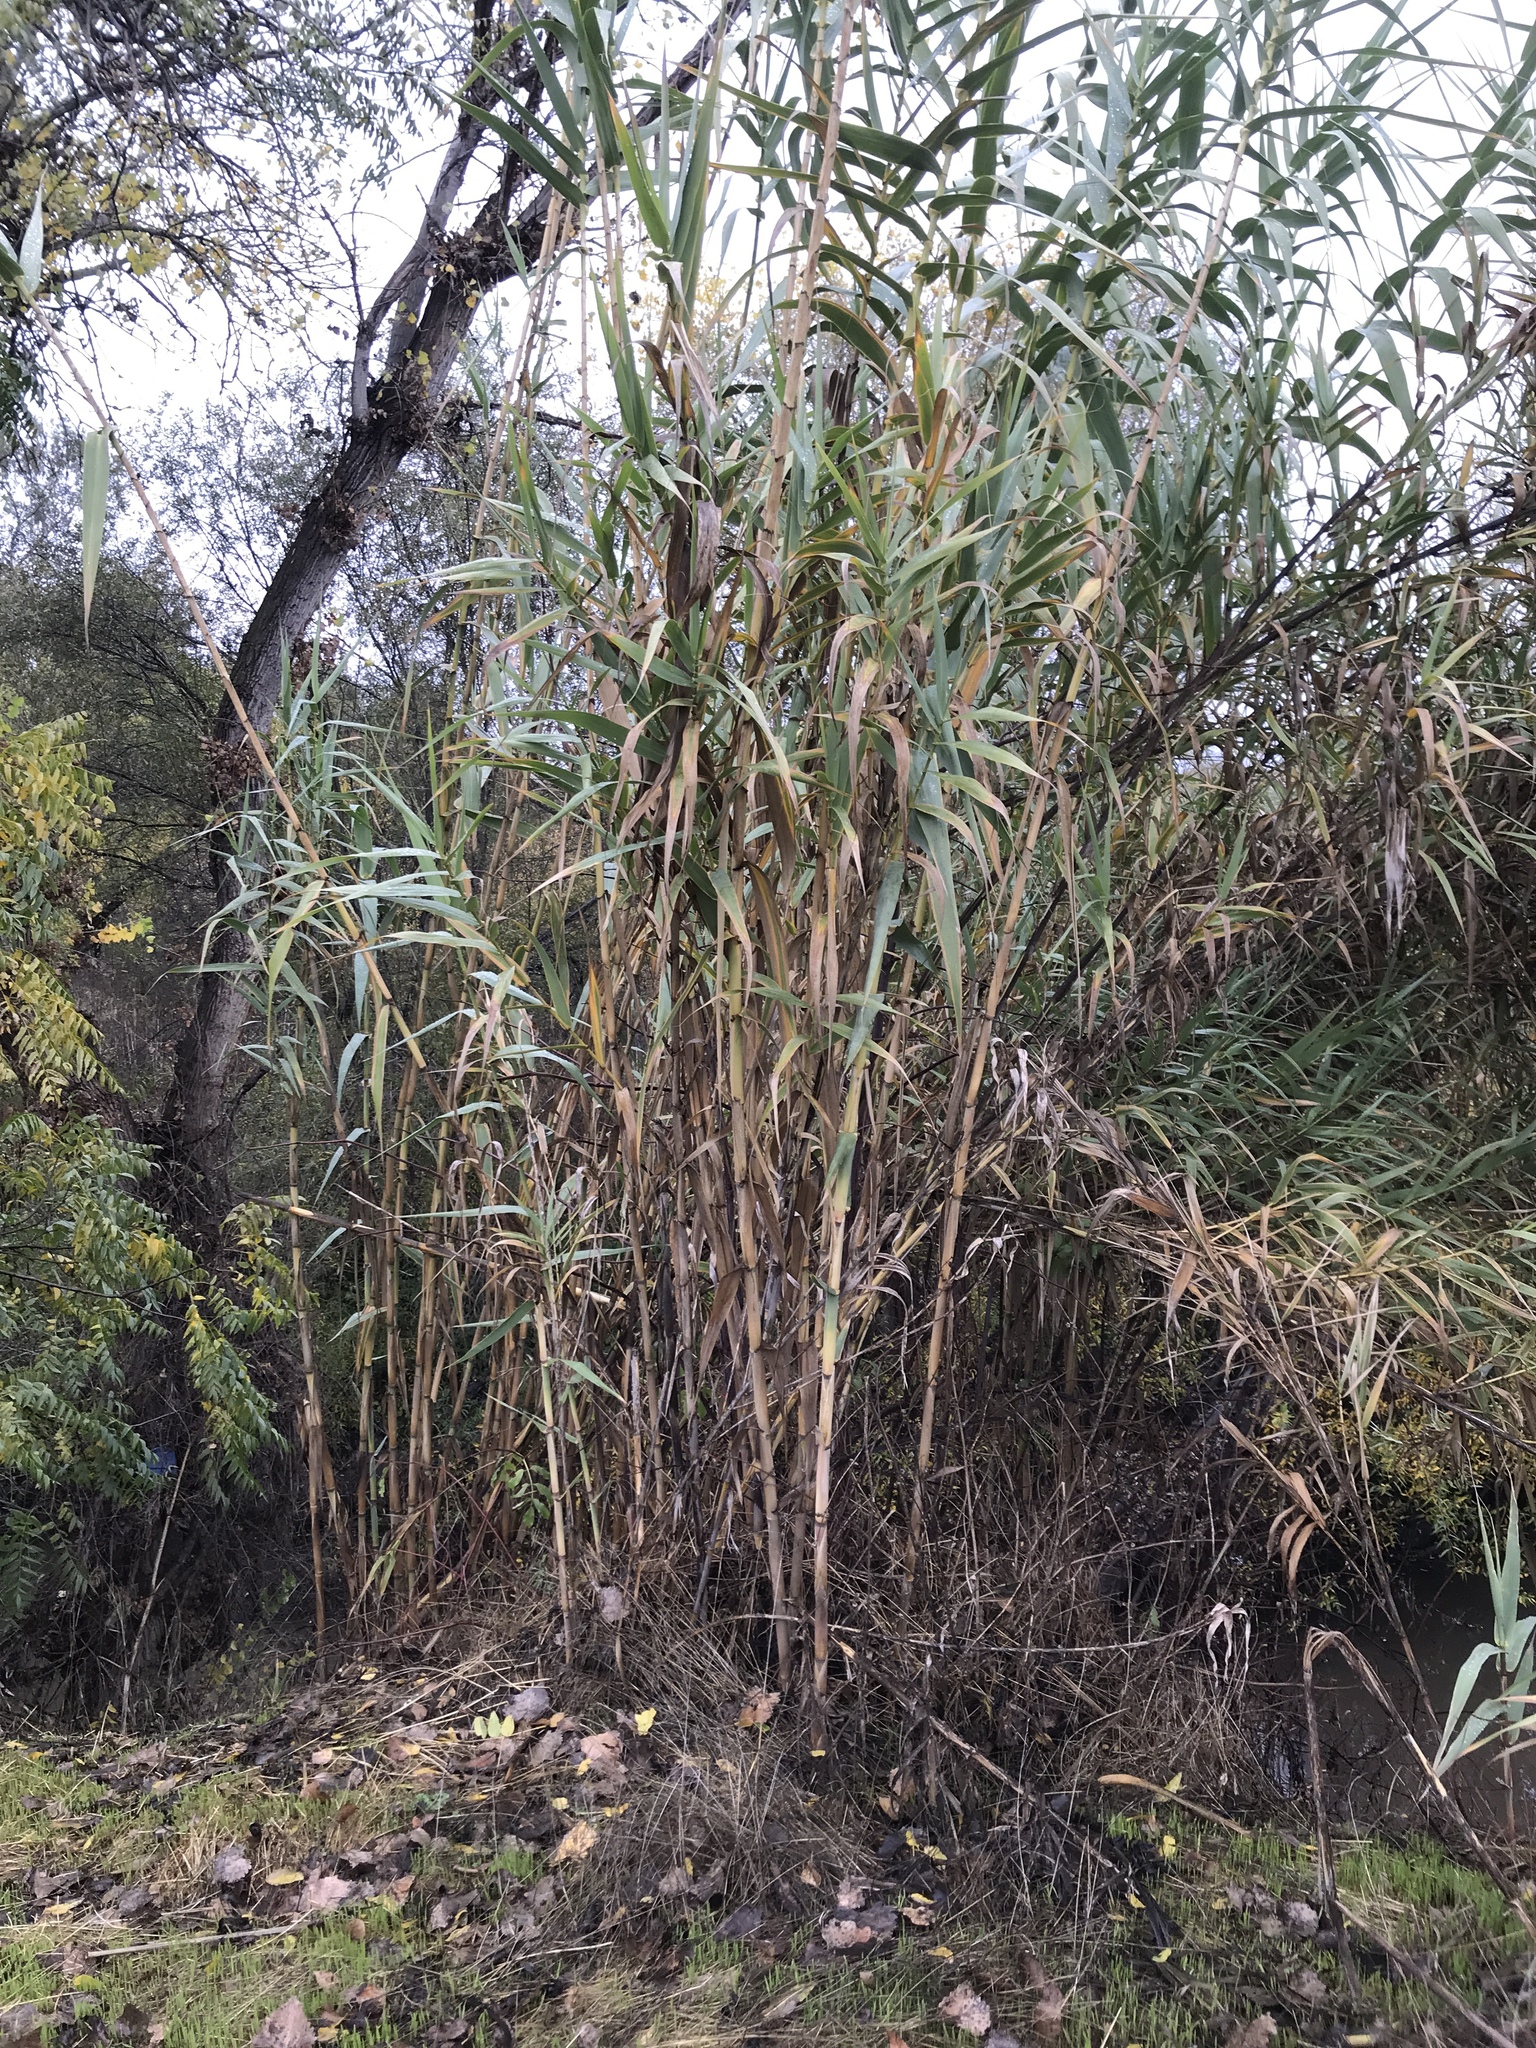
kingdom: Plantae
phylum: Tracheophyta
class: Liliopsida
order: Poales
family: Poaceae
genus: Arundo
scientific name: Arundo donax
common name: Giant reed
